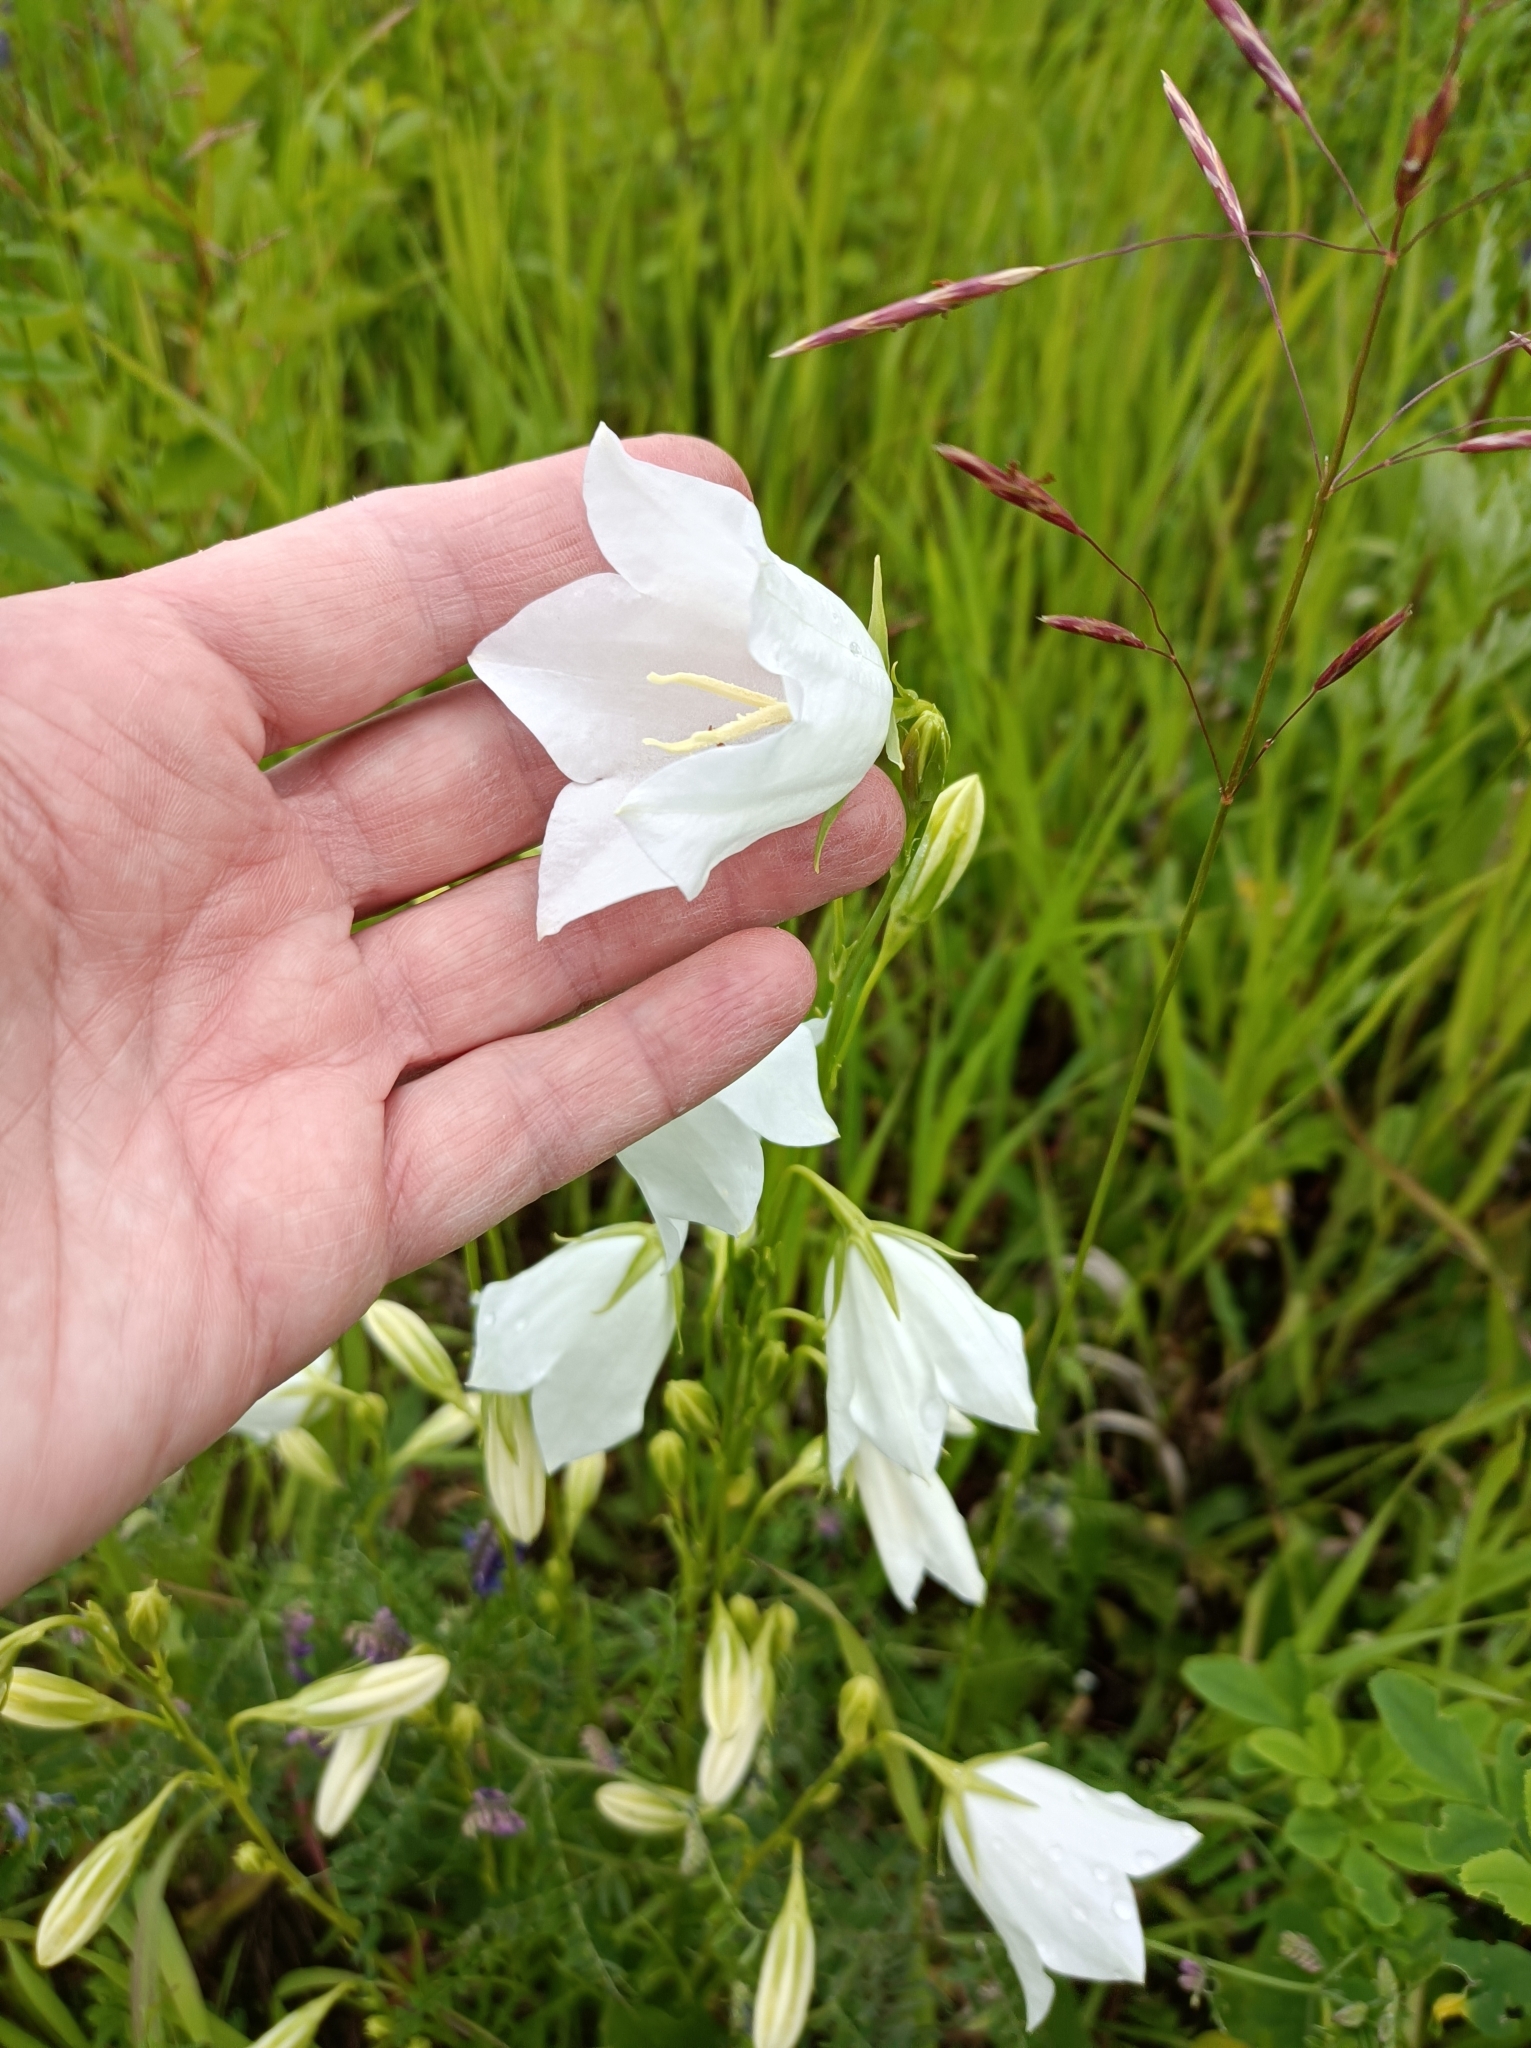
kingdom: Plantae
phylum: Tracheophyta
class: Magnoliopsida
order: Asterales
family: Campanulaceae
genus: Campanula
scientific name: Campanula persicifolia
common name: Peach-leaved bellflower
